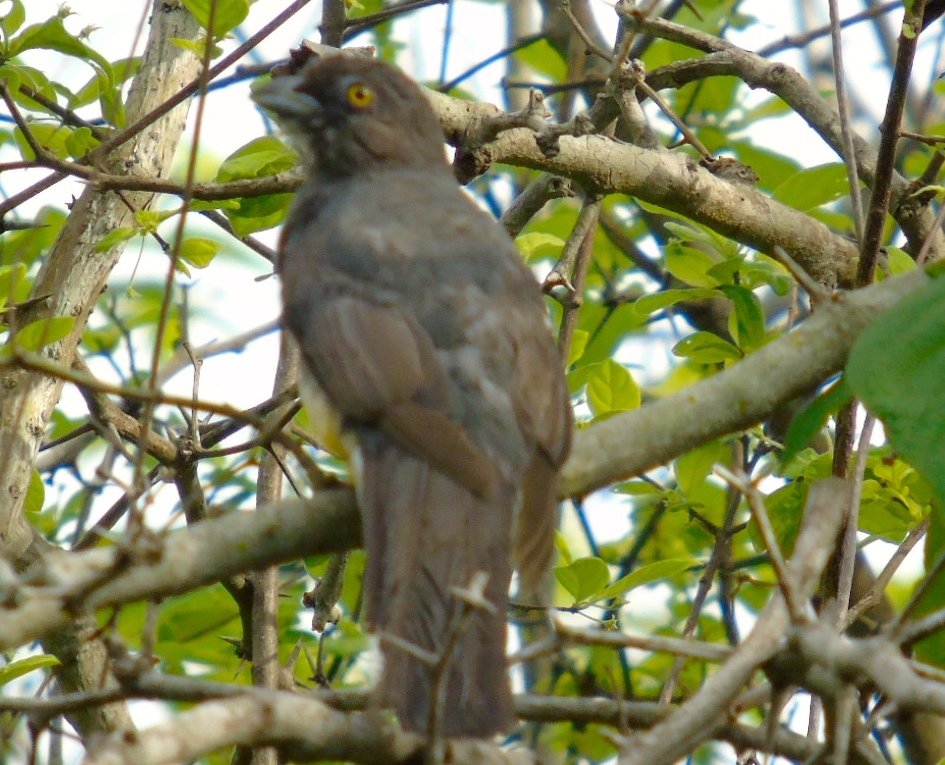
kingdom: Animalia
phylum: Chordata
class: Aves
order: Trogoniformes
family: Trogonidae
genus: Trogon
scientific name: Trogon citreolus
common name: Citreoline trogon
